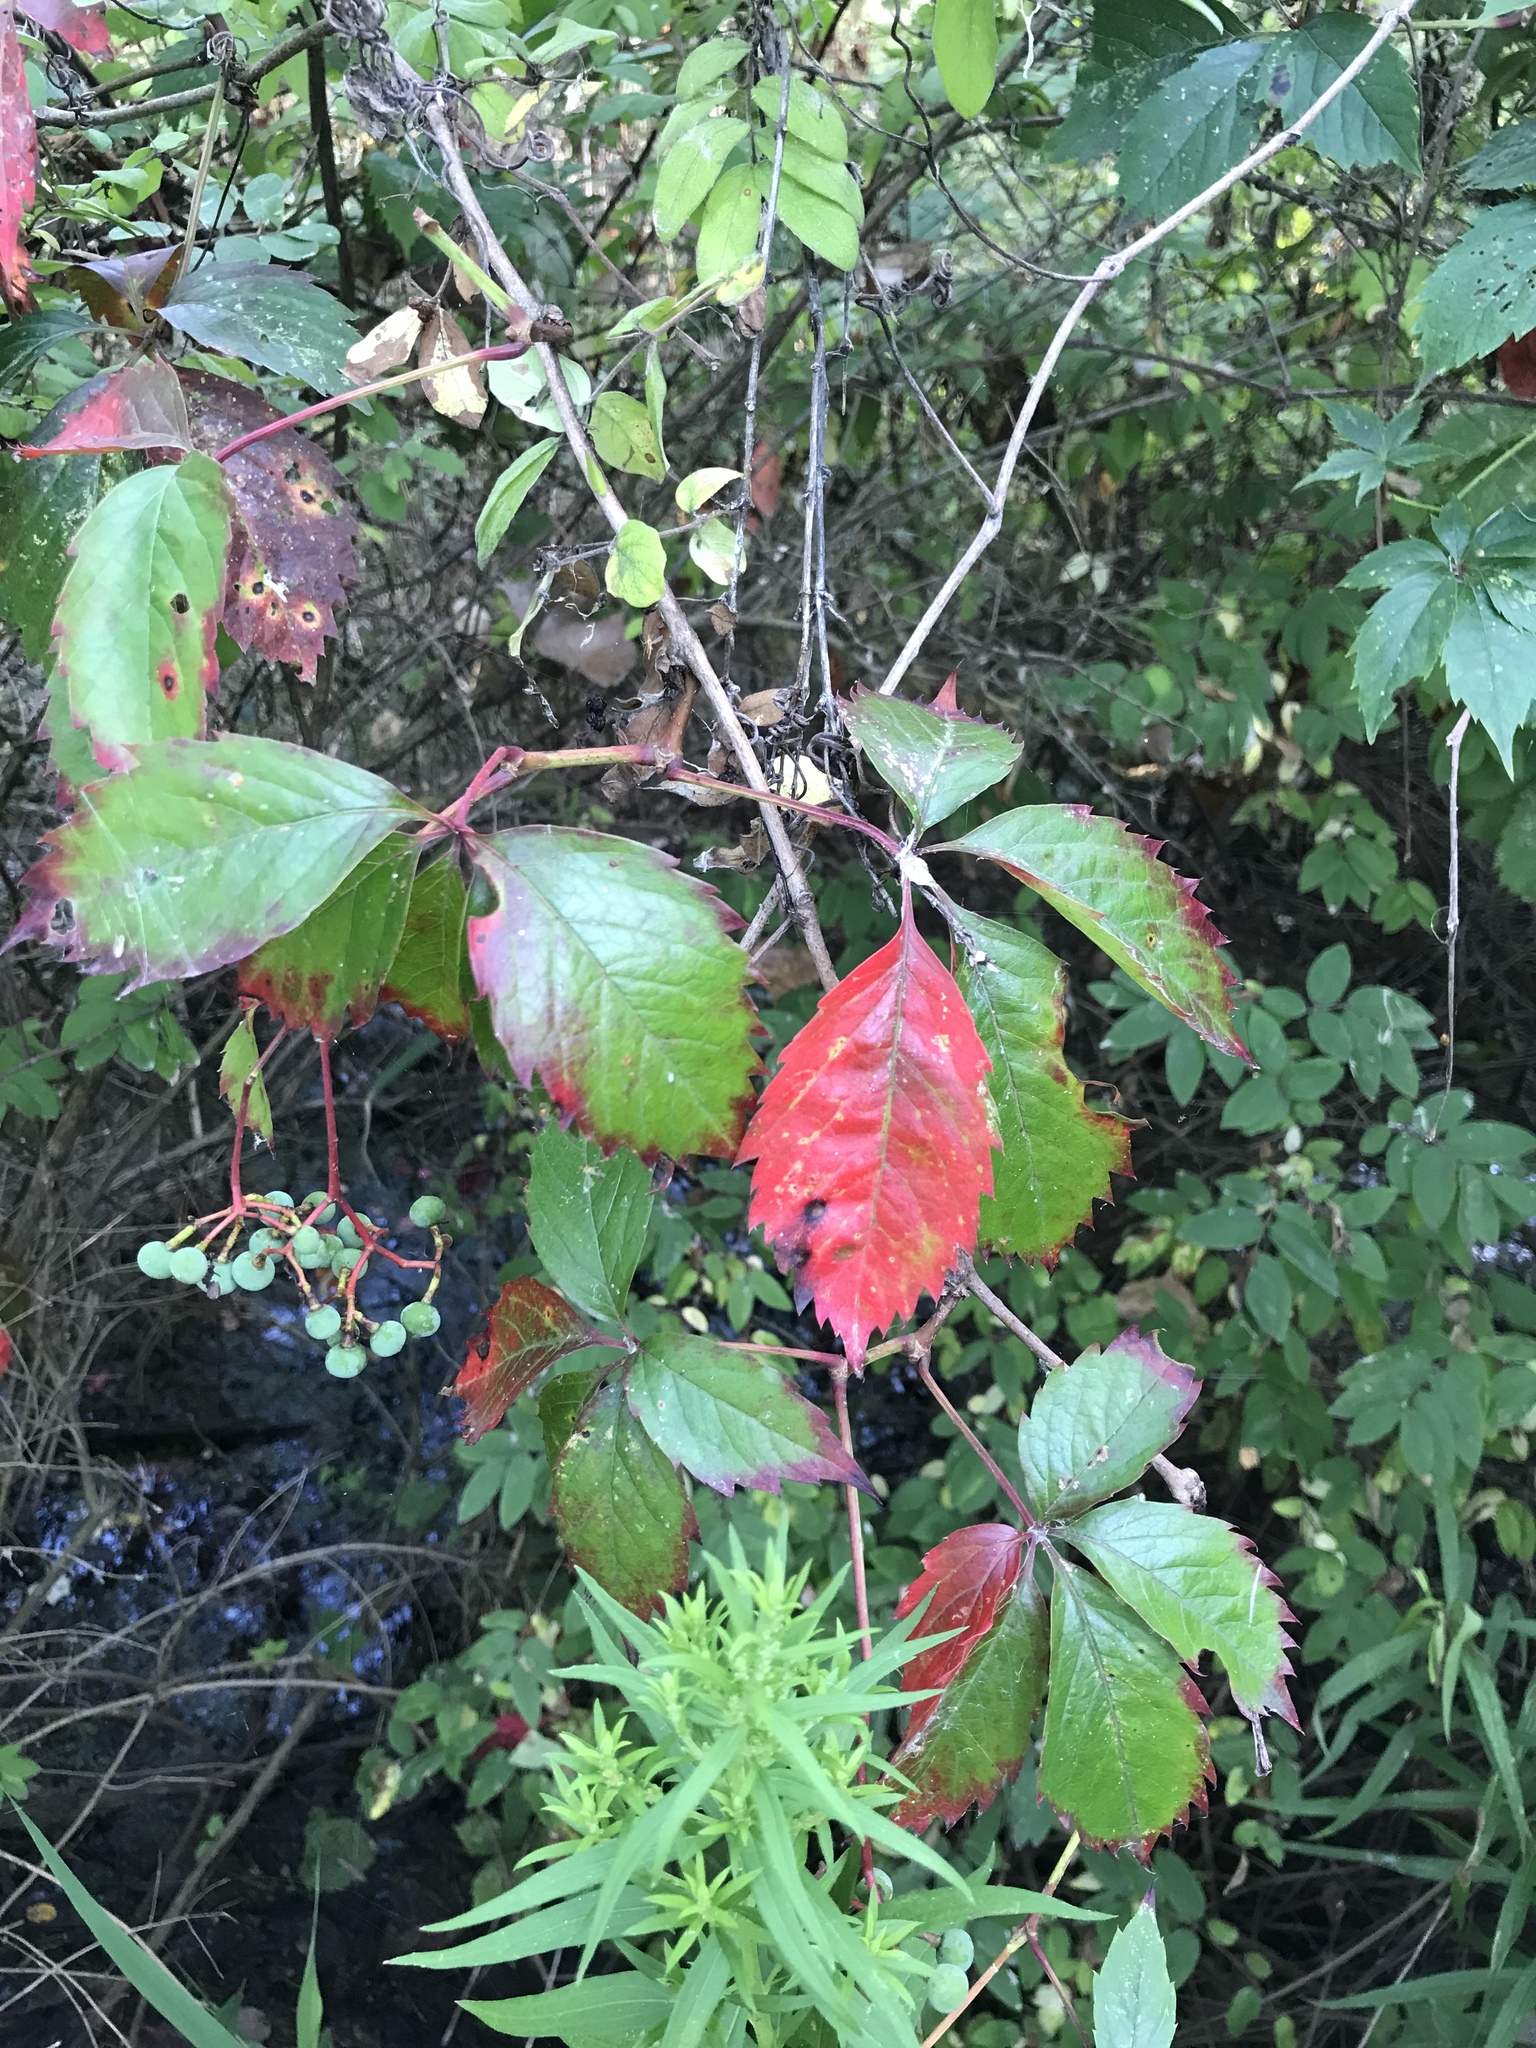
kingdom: Plantae
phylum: Tracheophyta
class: Magnoliopsida
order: Vitales
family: Vitaceae
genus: Parthenocissus
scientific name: Parthenocissus inserta
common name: False virginia-creeper
